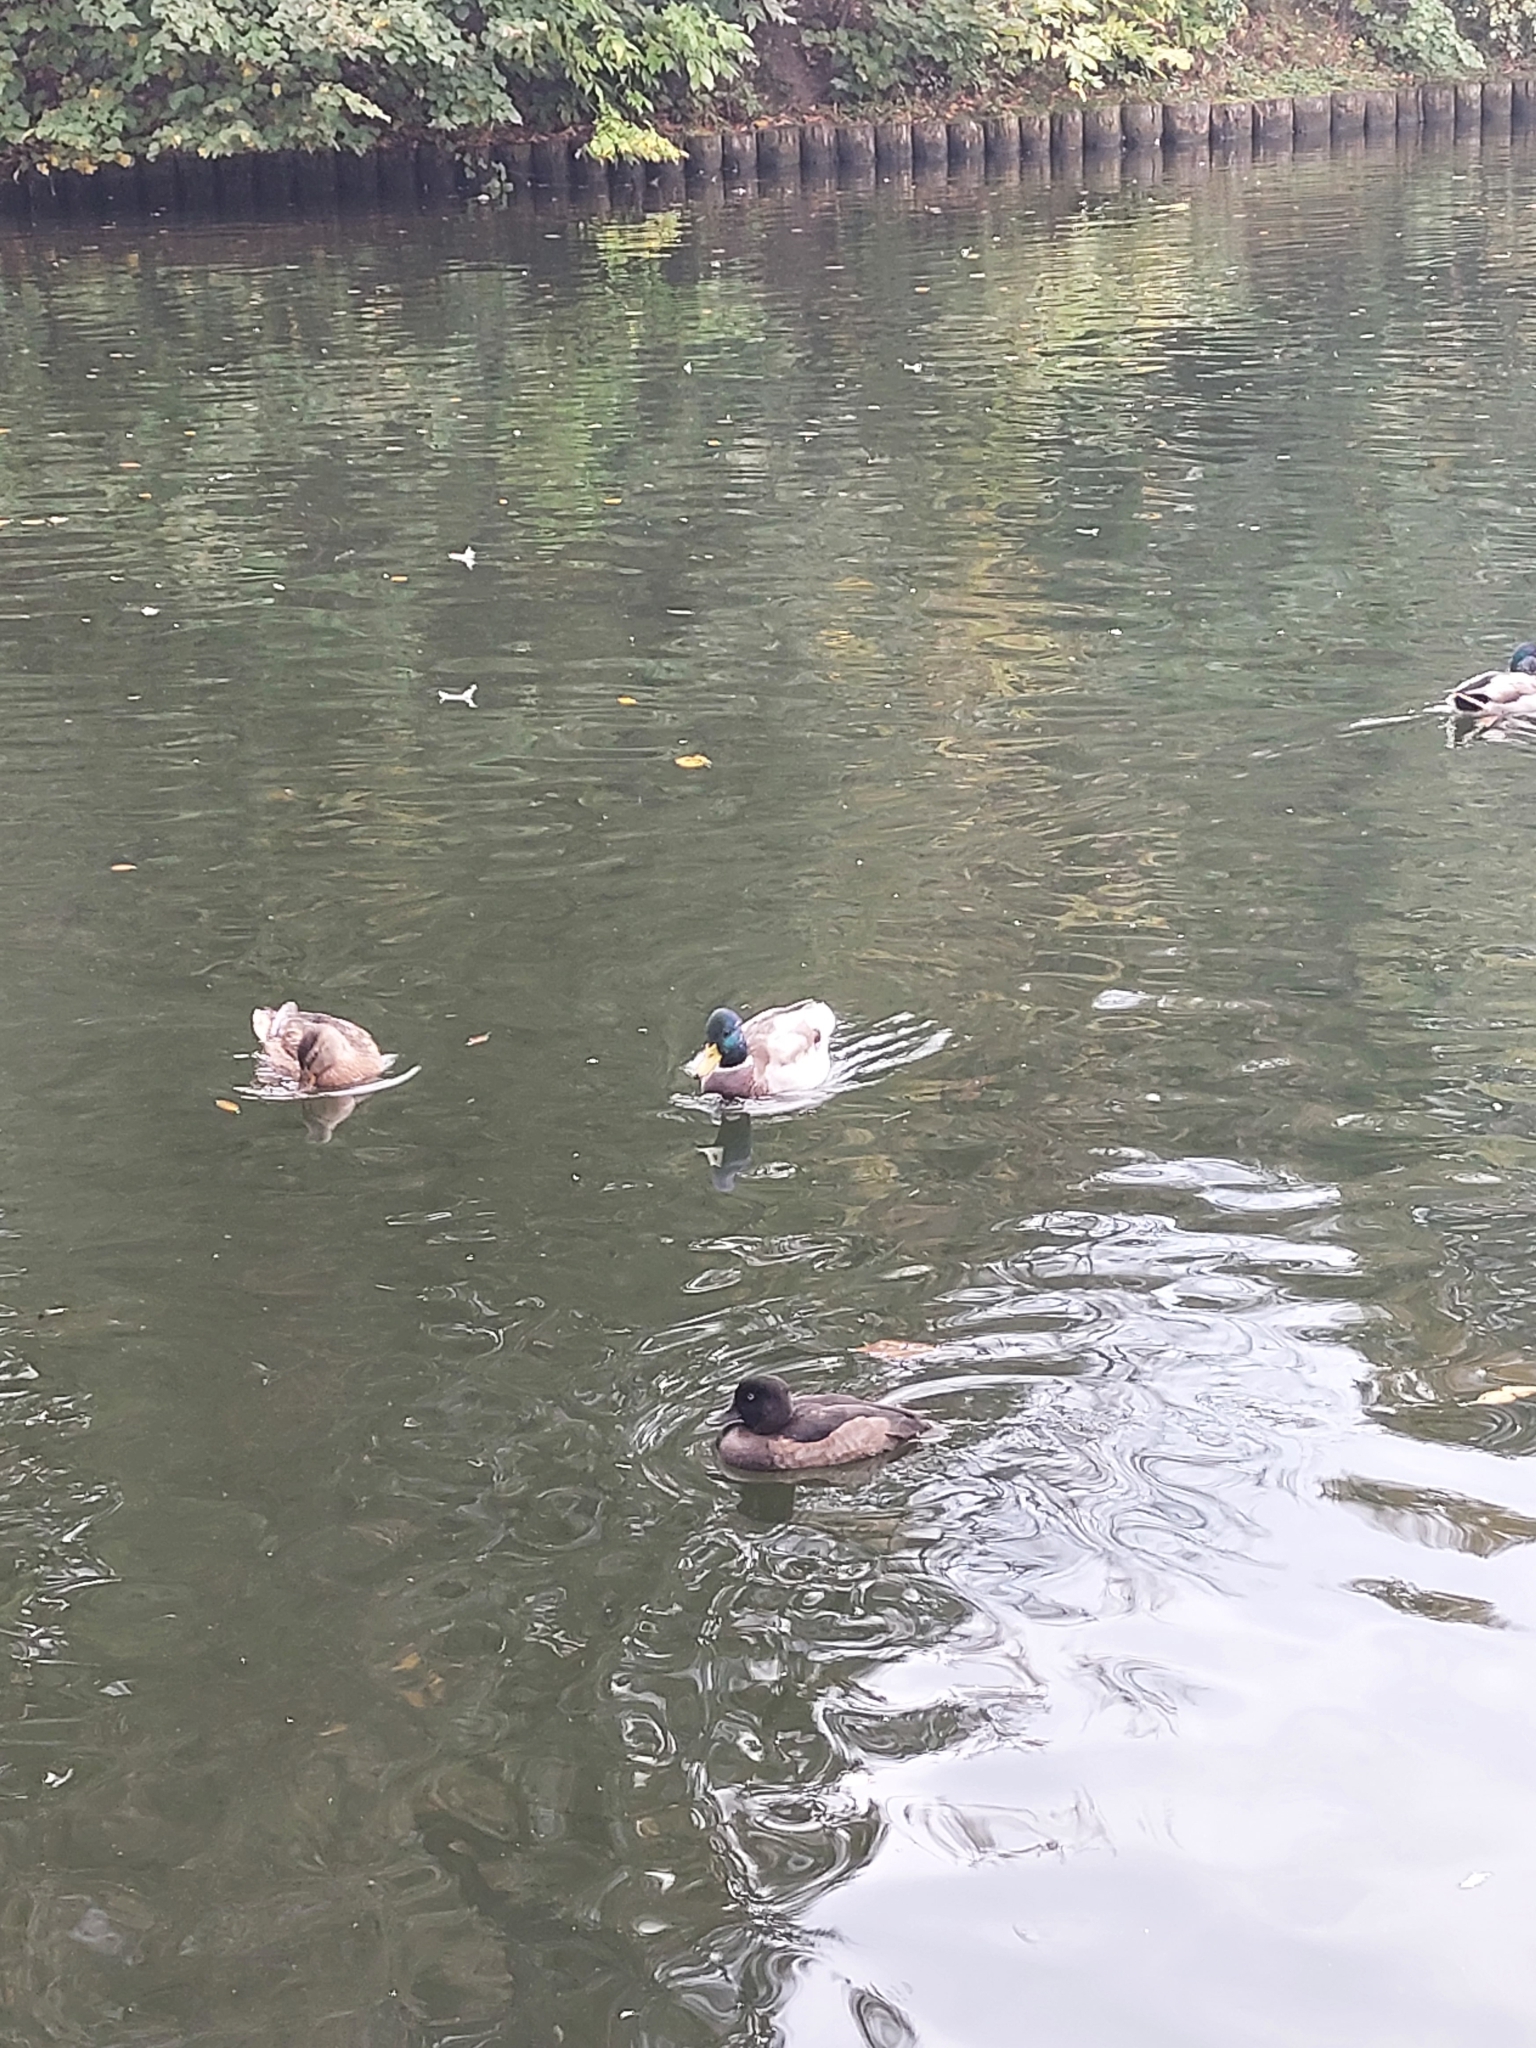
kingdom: Animalia
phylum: Chordata
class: Aves
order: Anseriformes
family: Anatidae
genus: Anas
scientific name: Anas platyrhynchos
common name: Mallard
